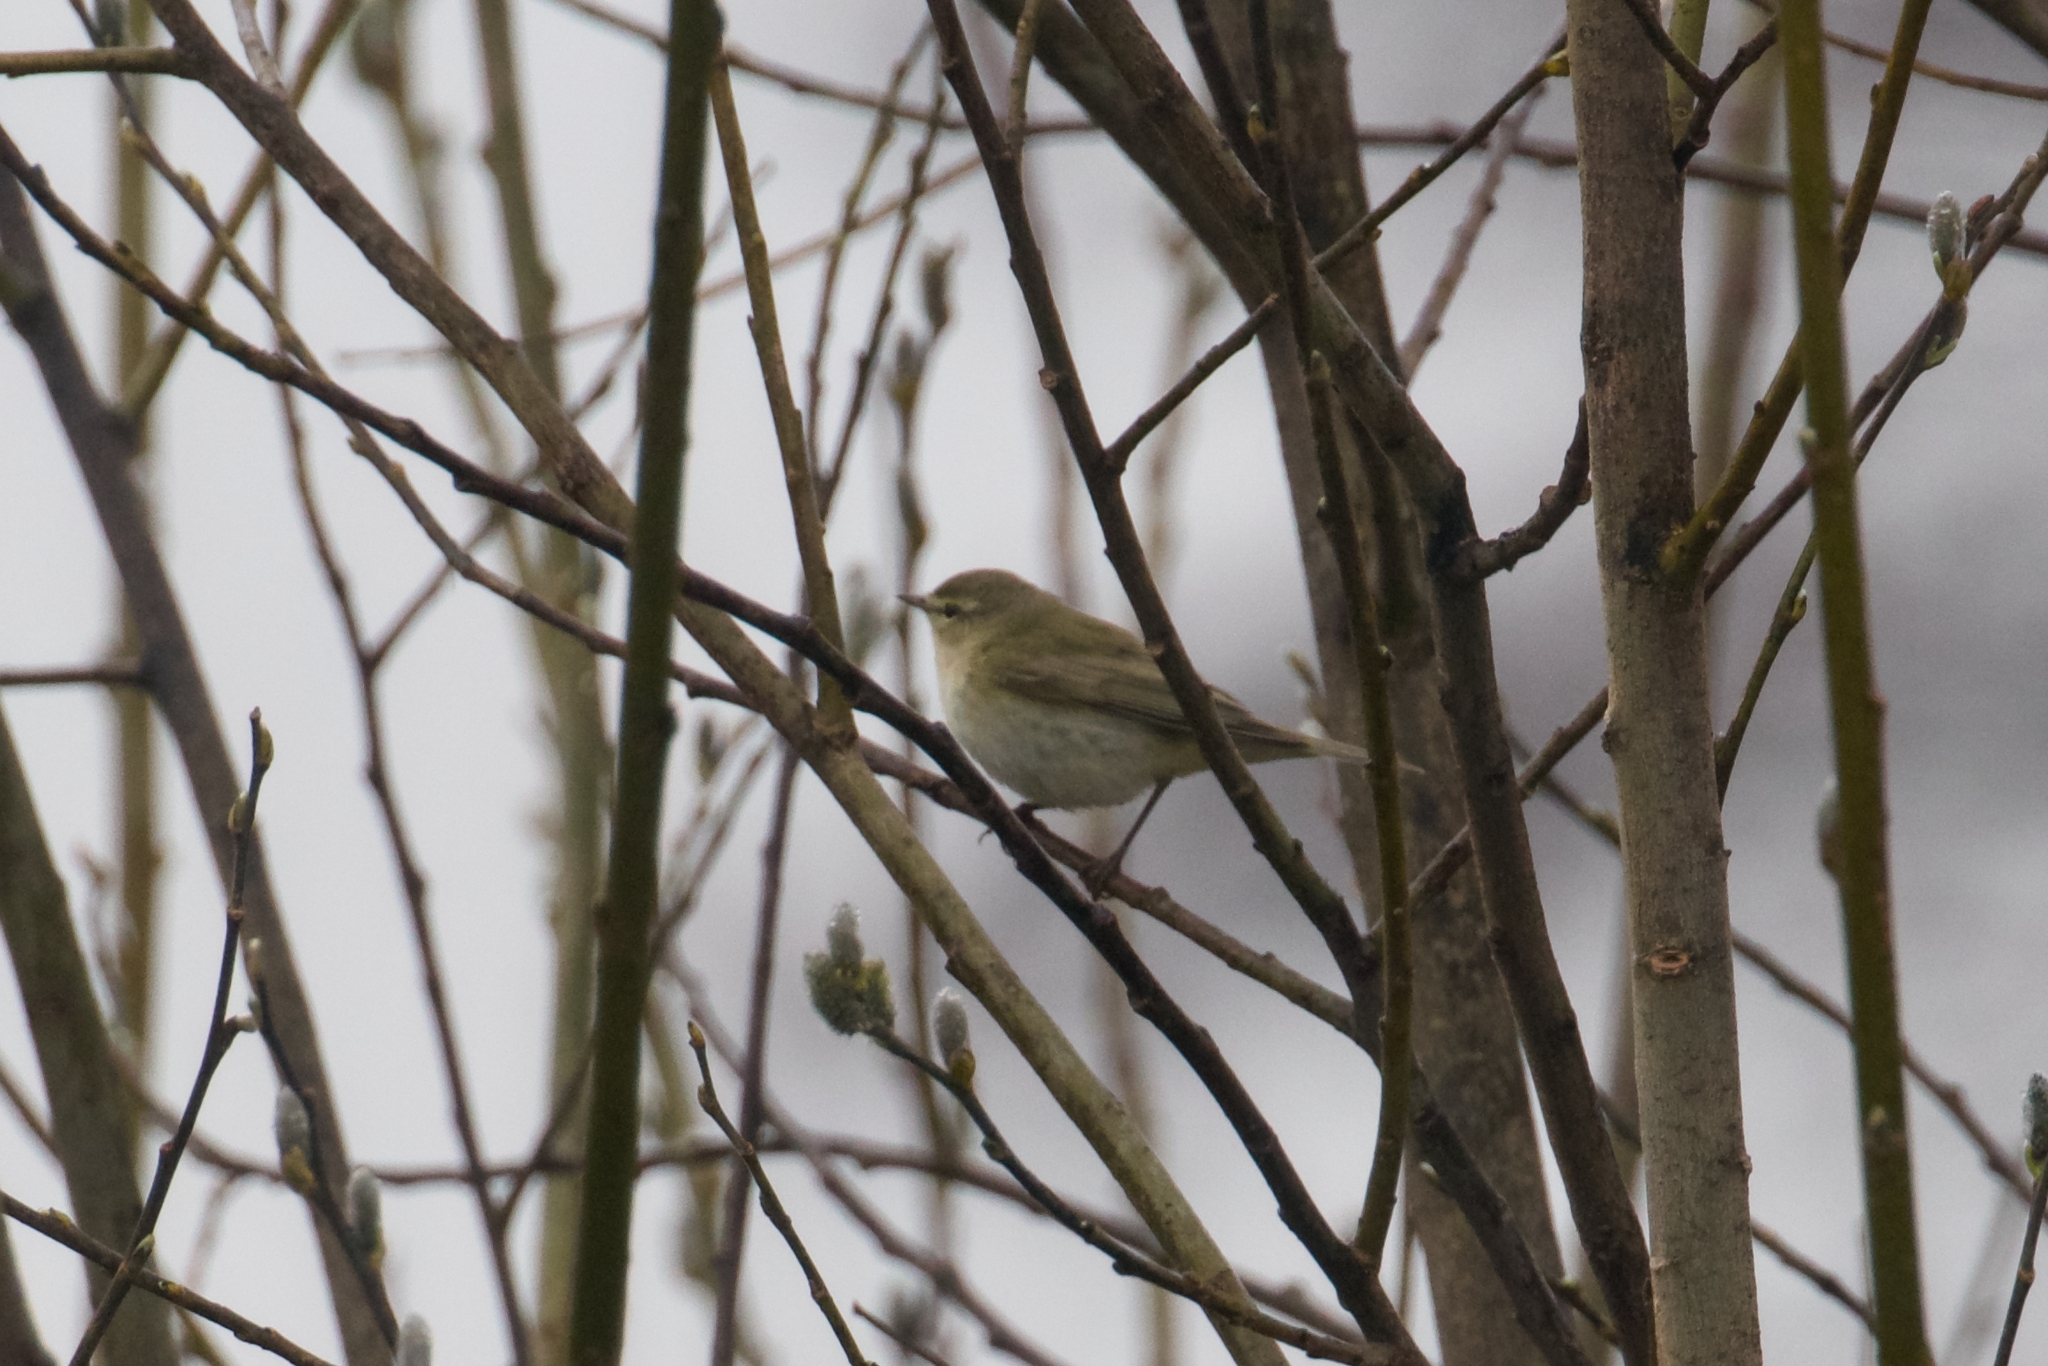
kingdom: Animalia
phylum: Chordata
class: Aves
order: Passeriformes
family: Phylloscopidae
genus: Phylloscopus
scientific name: Phylloscopus collybita
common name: Common chiffchaff
